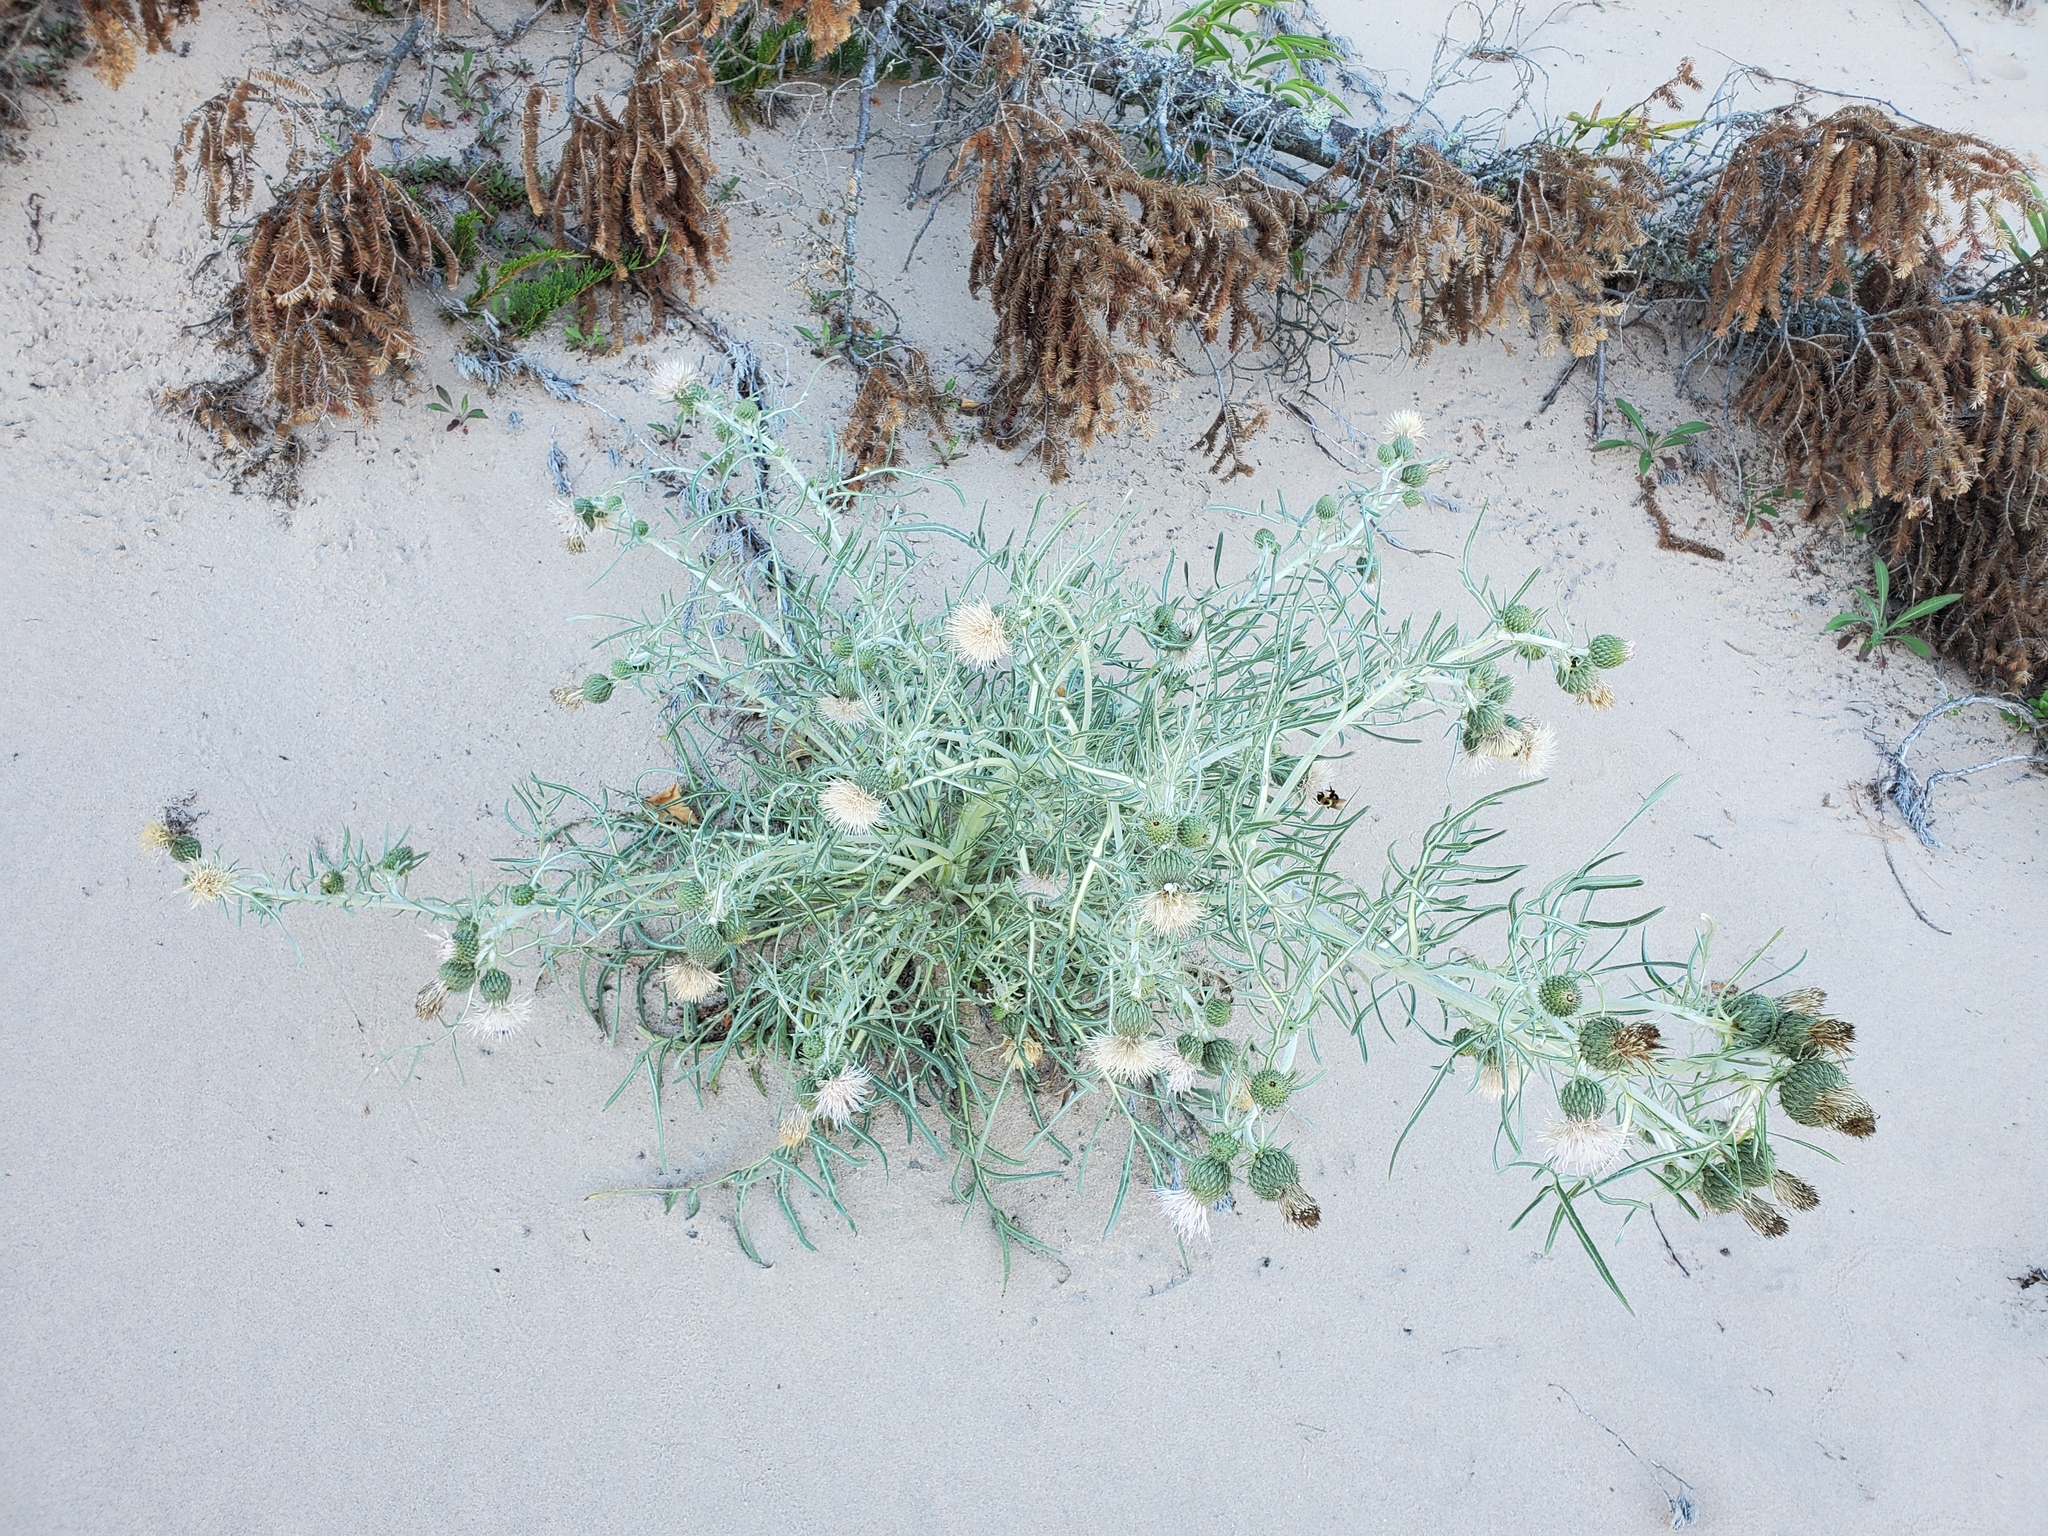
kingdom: Plantae
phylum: Tracheophyta
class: Magnoliopsida
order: Asterales
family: Asteraceae
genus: Cirsium
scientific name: Cirsium pitcheri
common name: Dune thistle
